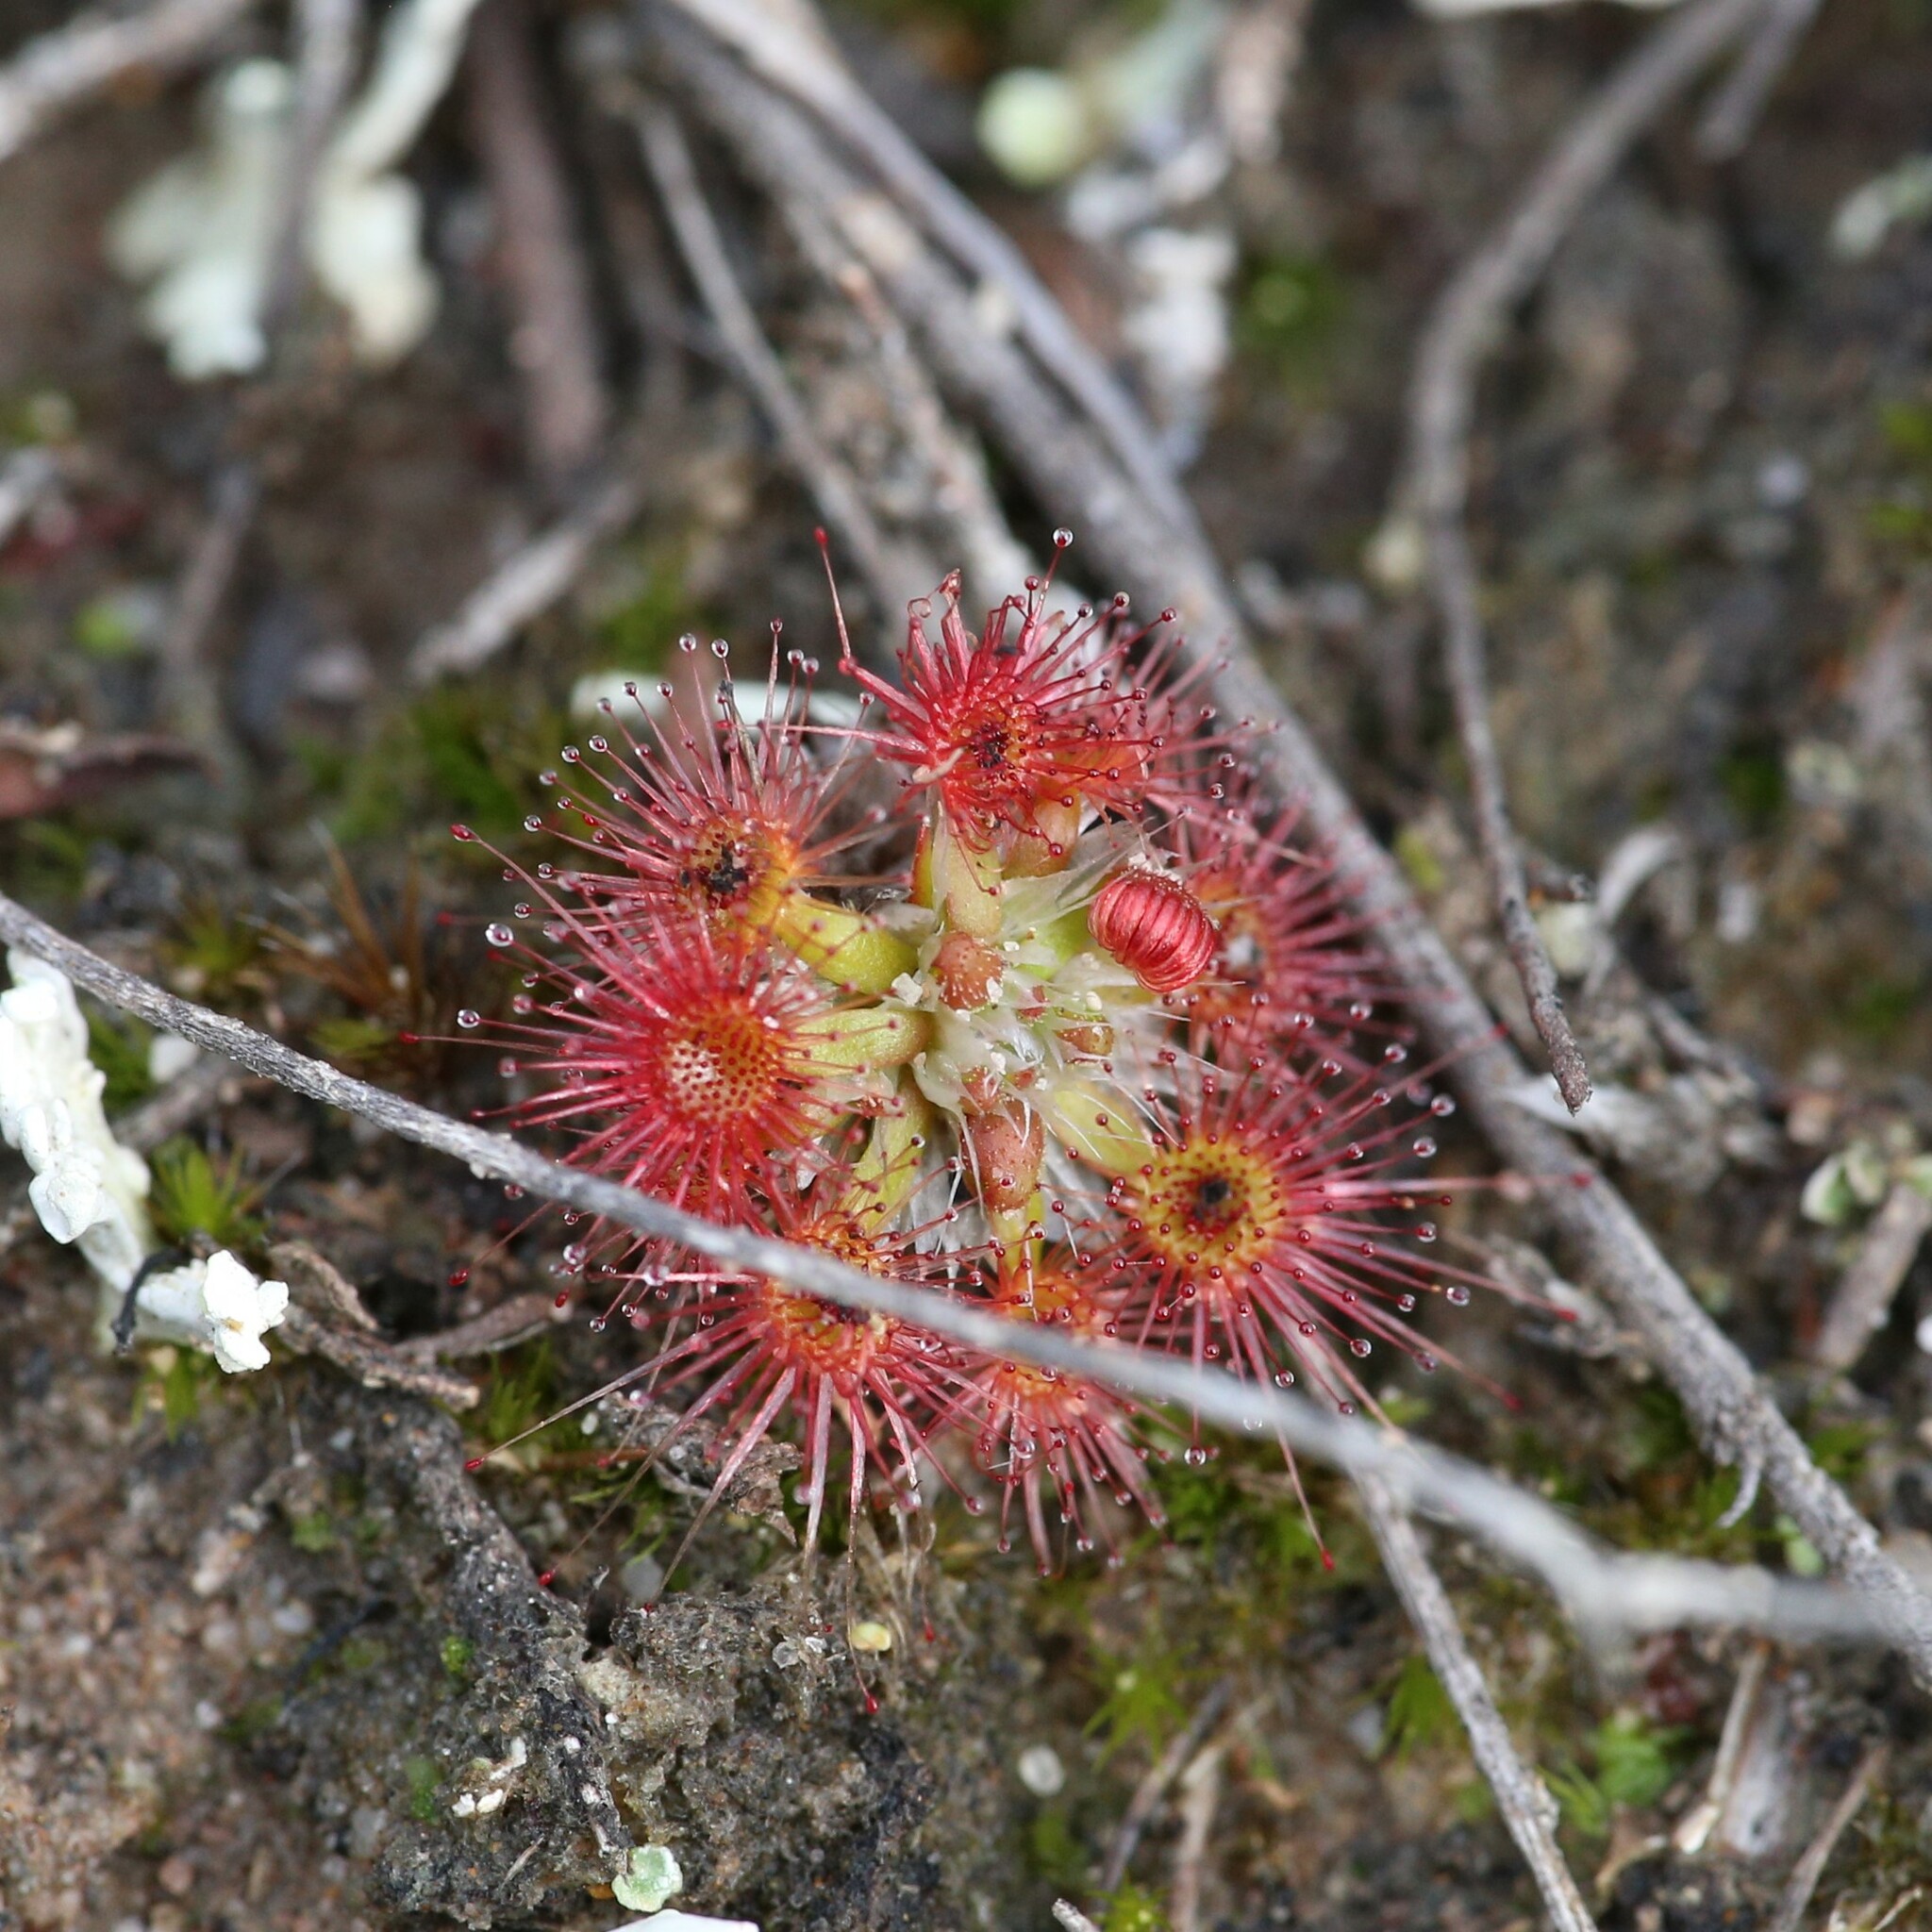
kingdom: Plantae
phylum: Tracheophyta
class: Magnoliopsida
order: Caryophyllales
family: Droseraceae
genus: Drosera
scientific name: Drosera androsacea
